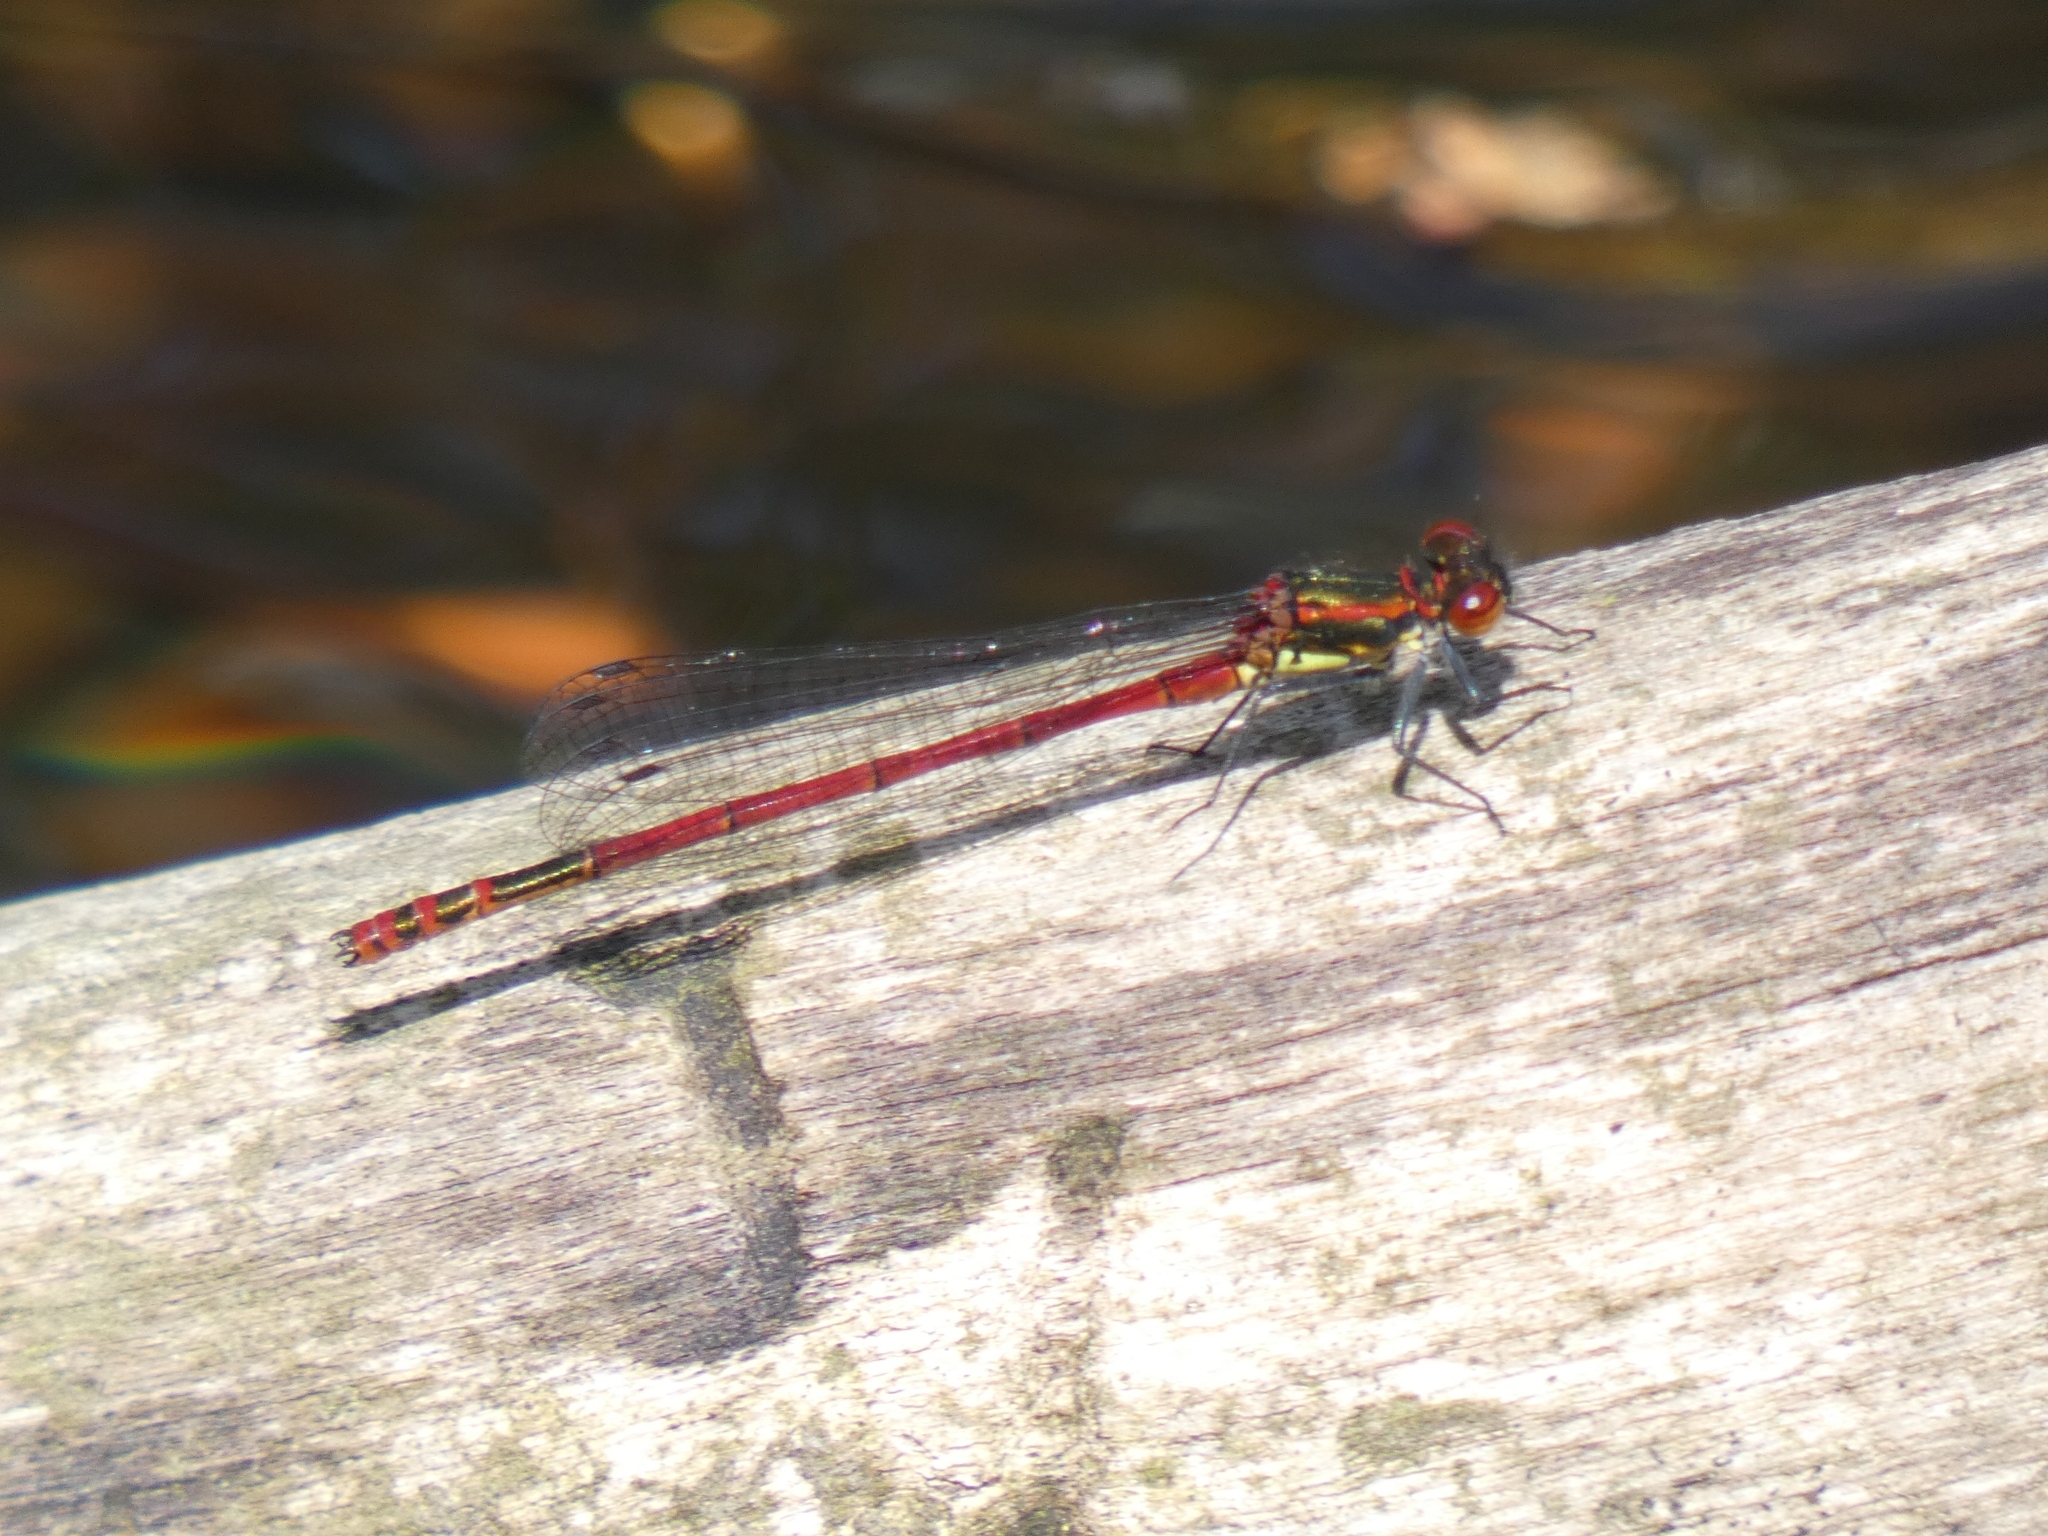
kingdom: Animalia
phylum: Arthropoda
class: Insecta
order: Odonata
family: Coenagrionidae
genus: Pyrrhosoma
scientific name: Pyrrhosoma nymphula
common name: Large red damsel
